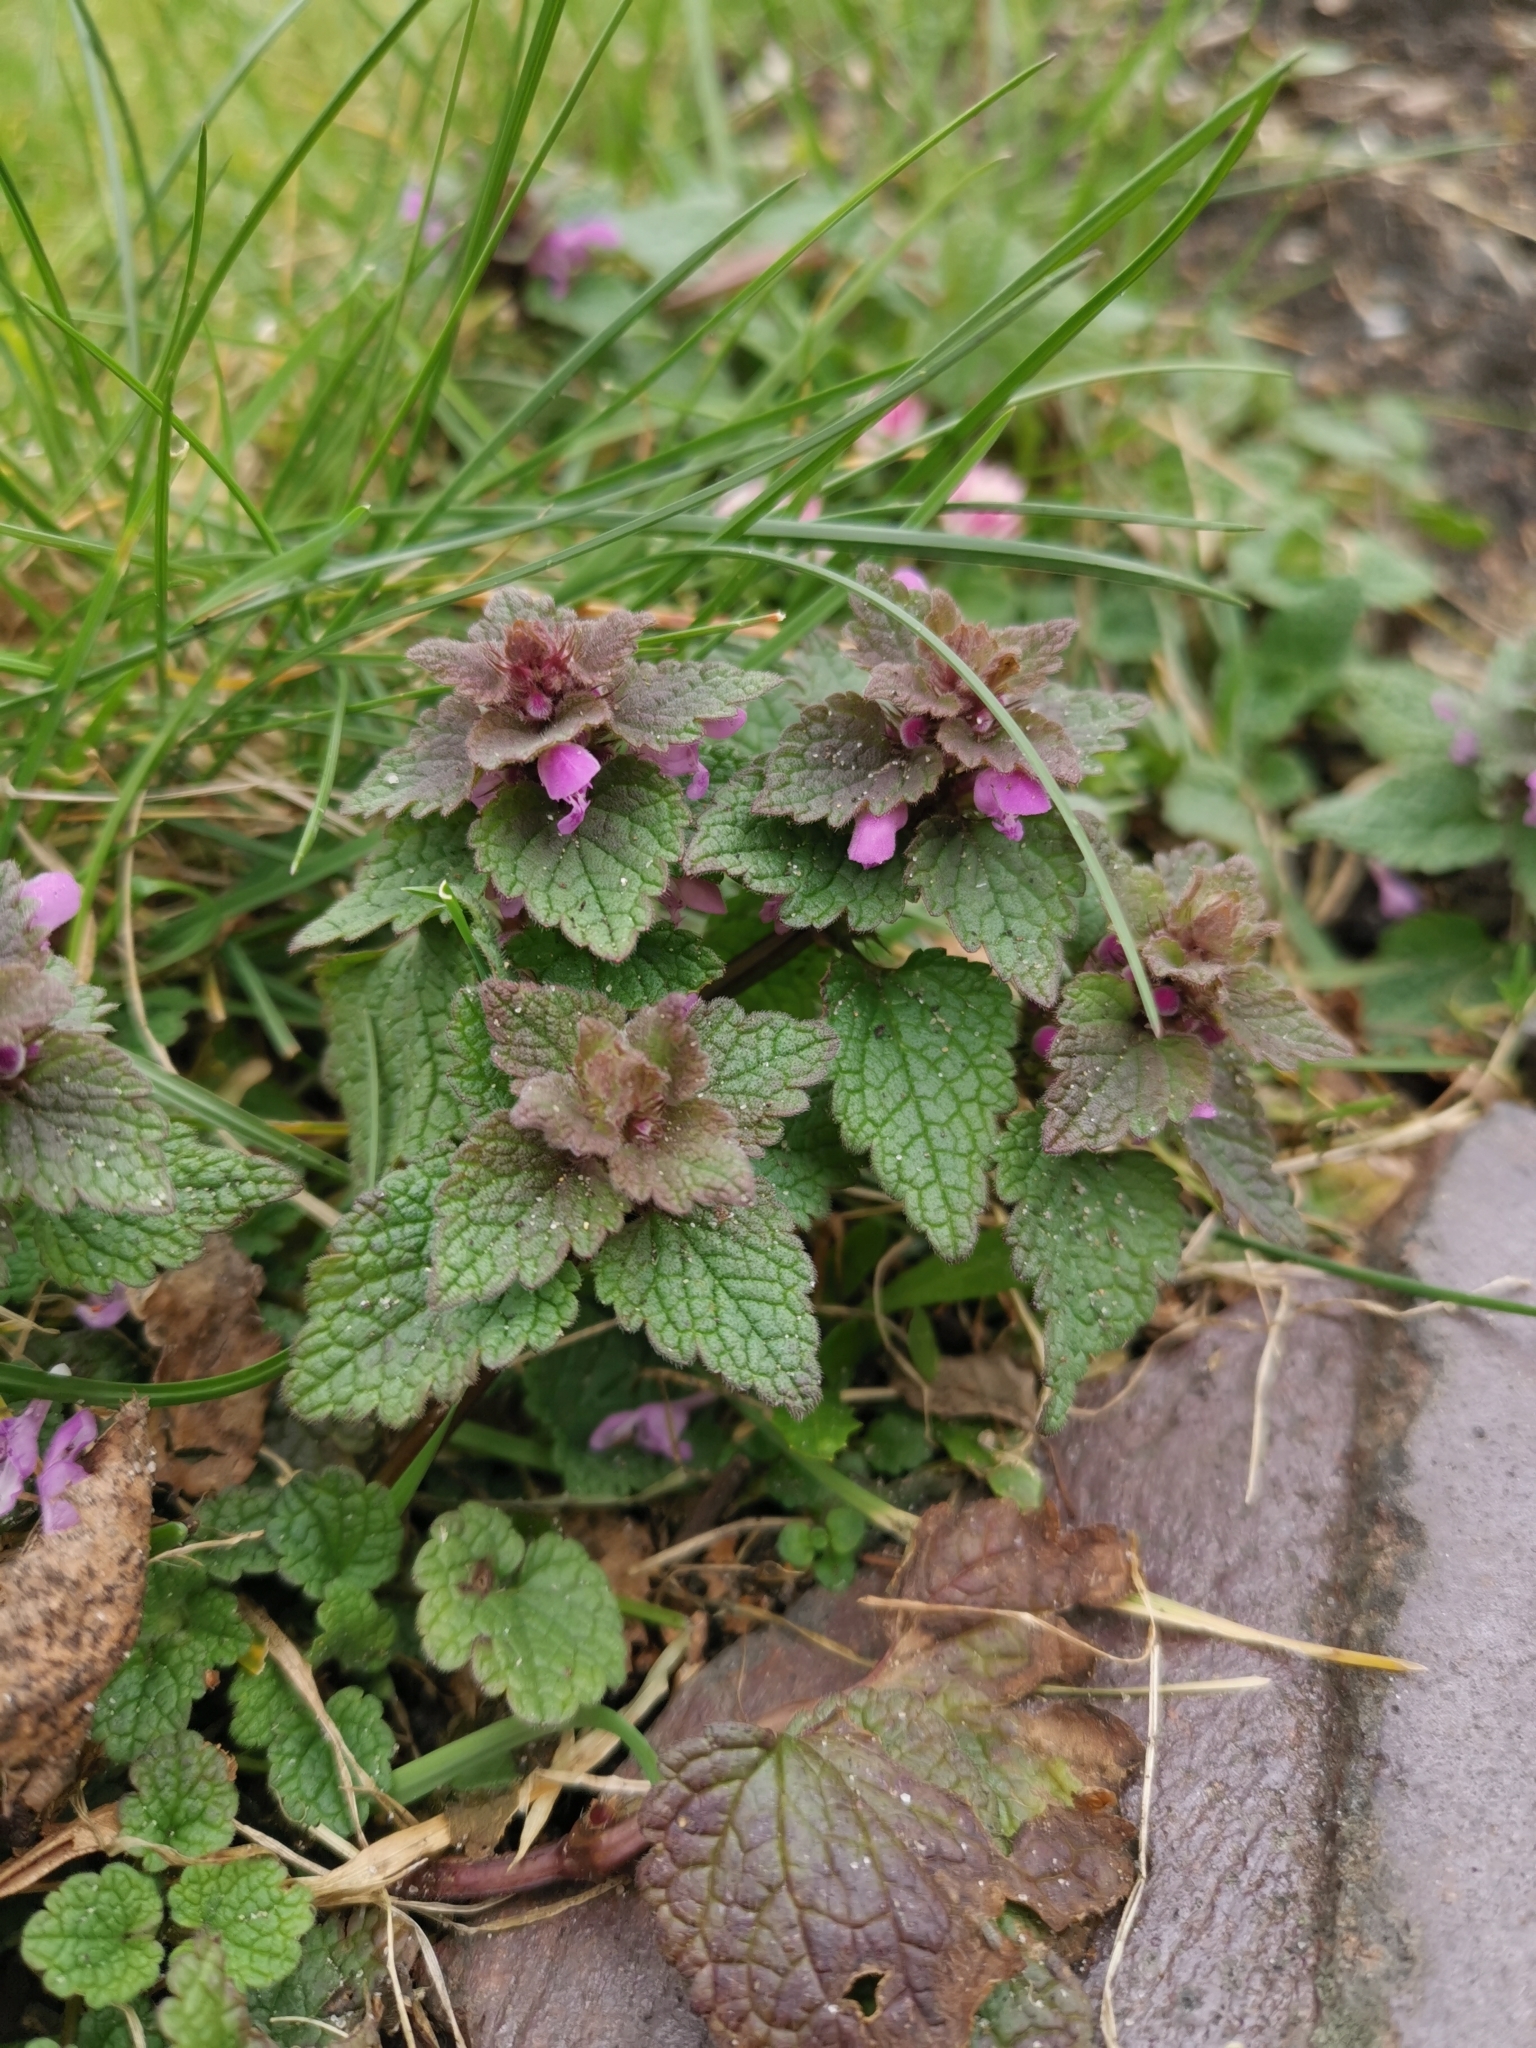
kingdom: Plantae
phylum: Tracheophyta
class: Magnoliopsida
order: Lamiales
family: Lamiaceae
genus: Lamium
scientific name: Lamium purpureum
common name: Red dead-nettle
